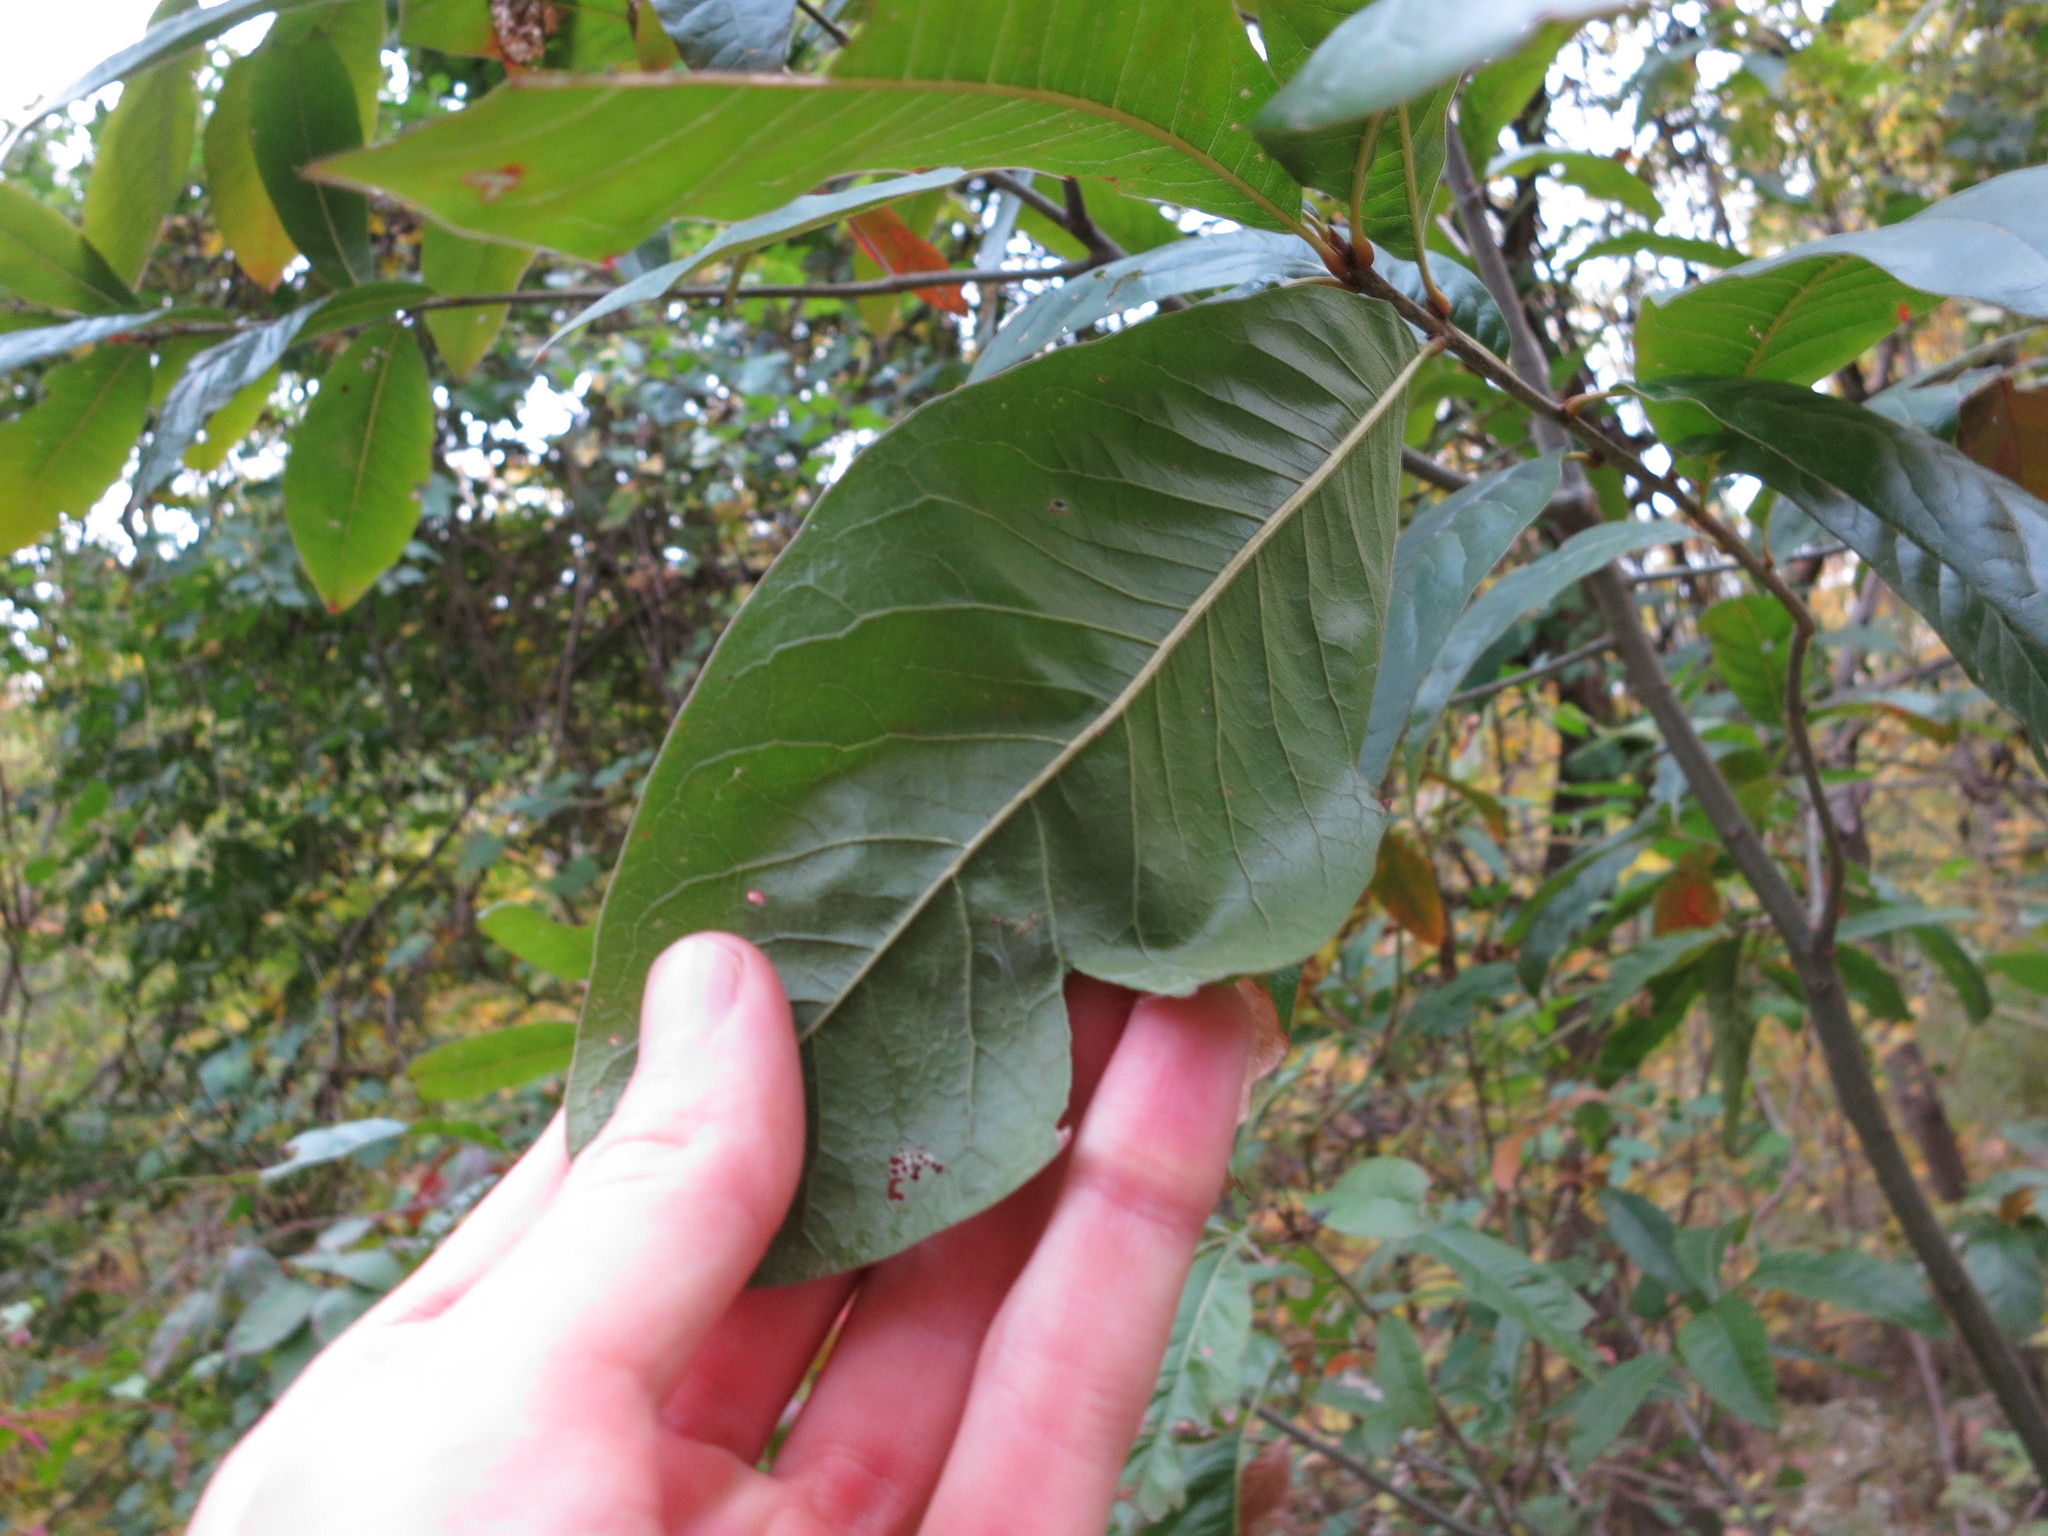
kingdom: Plantae
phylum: Tracheophyta
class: Magnoliopsida
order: Fagales
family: Fagaceae
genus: Quercus
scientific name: Quercus imbricaria
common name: Shingle oak
